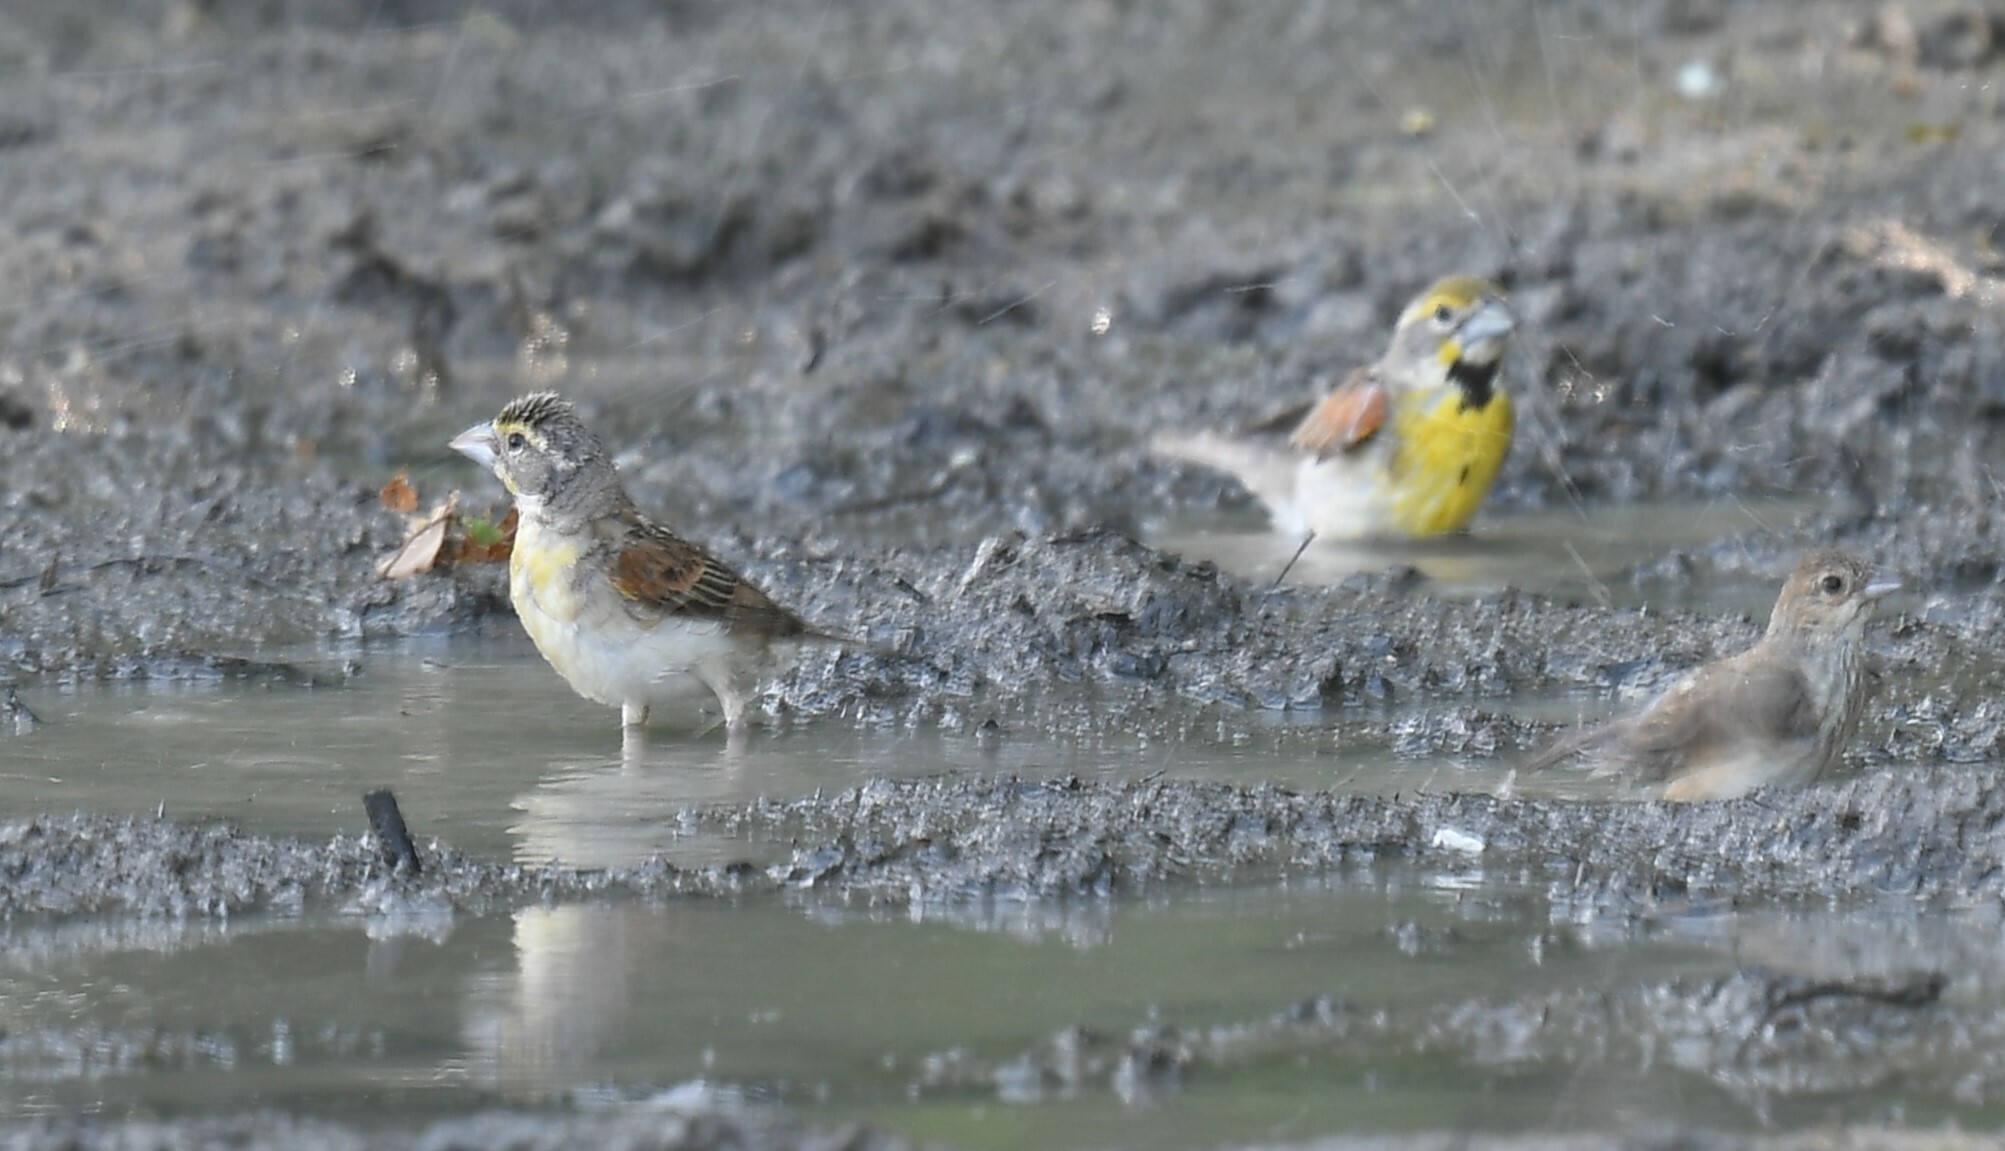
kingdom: Animalia
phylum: Chordata
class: Aves
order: Passeriformes
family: Cardinalidae
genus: Spiza
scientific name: Spiza americana
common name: Dickcissel
